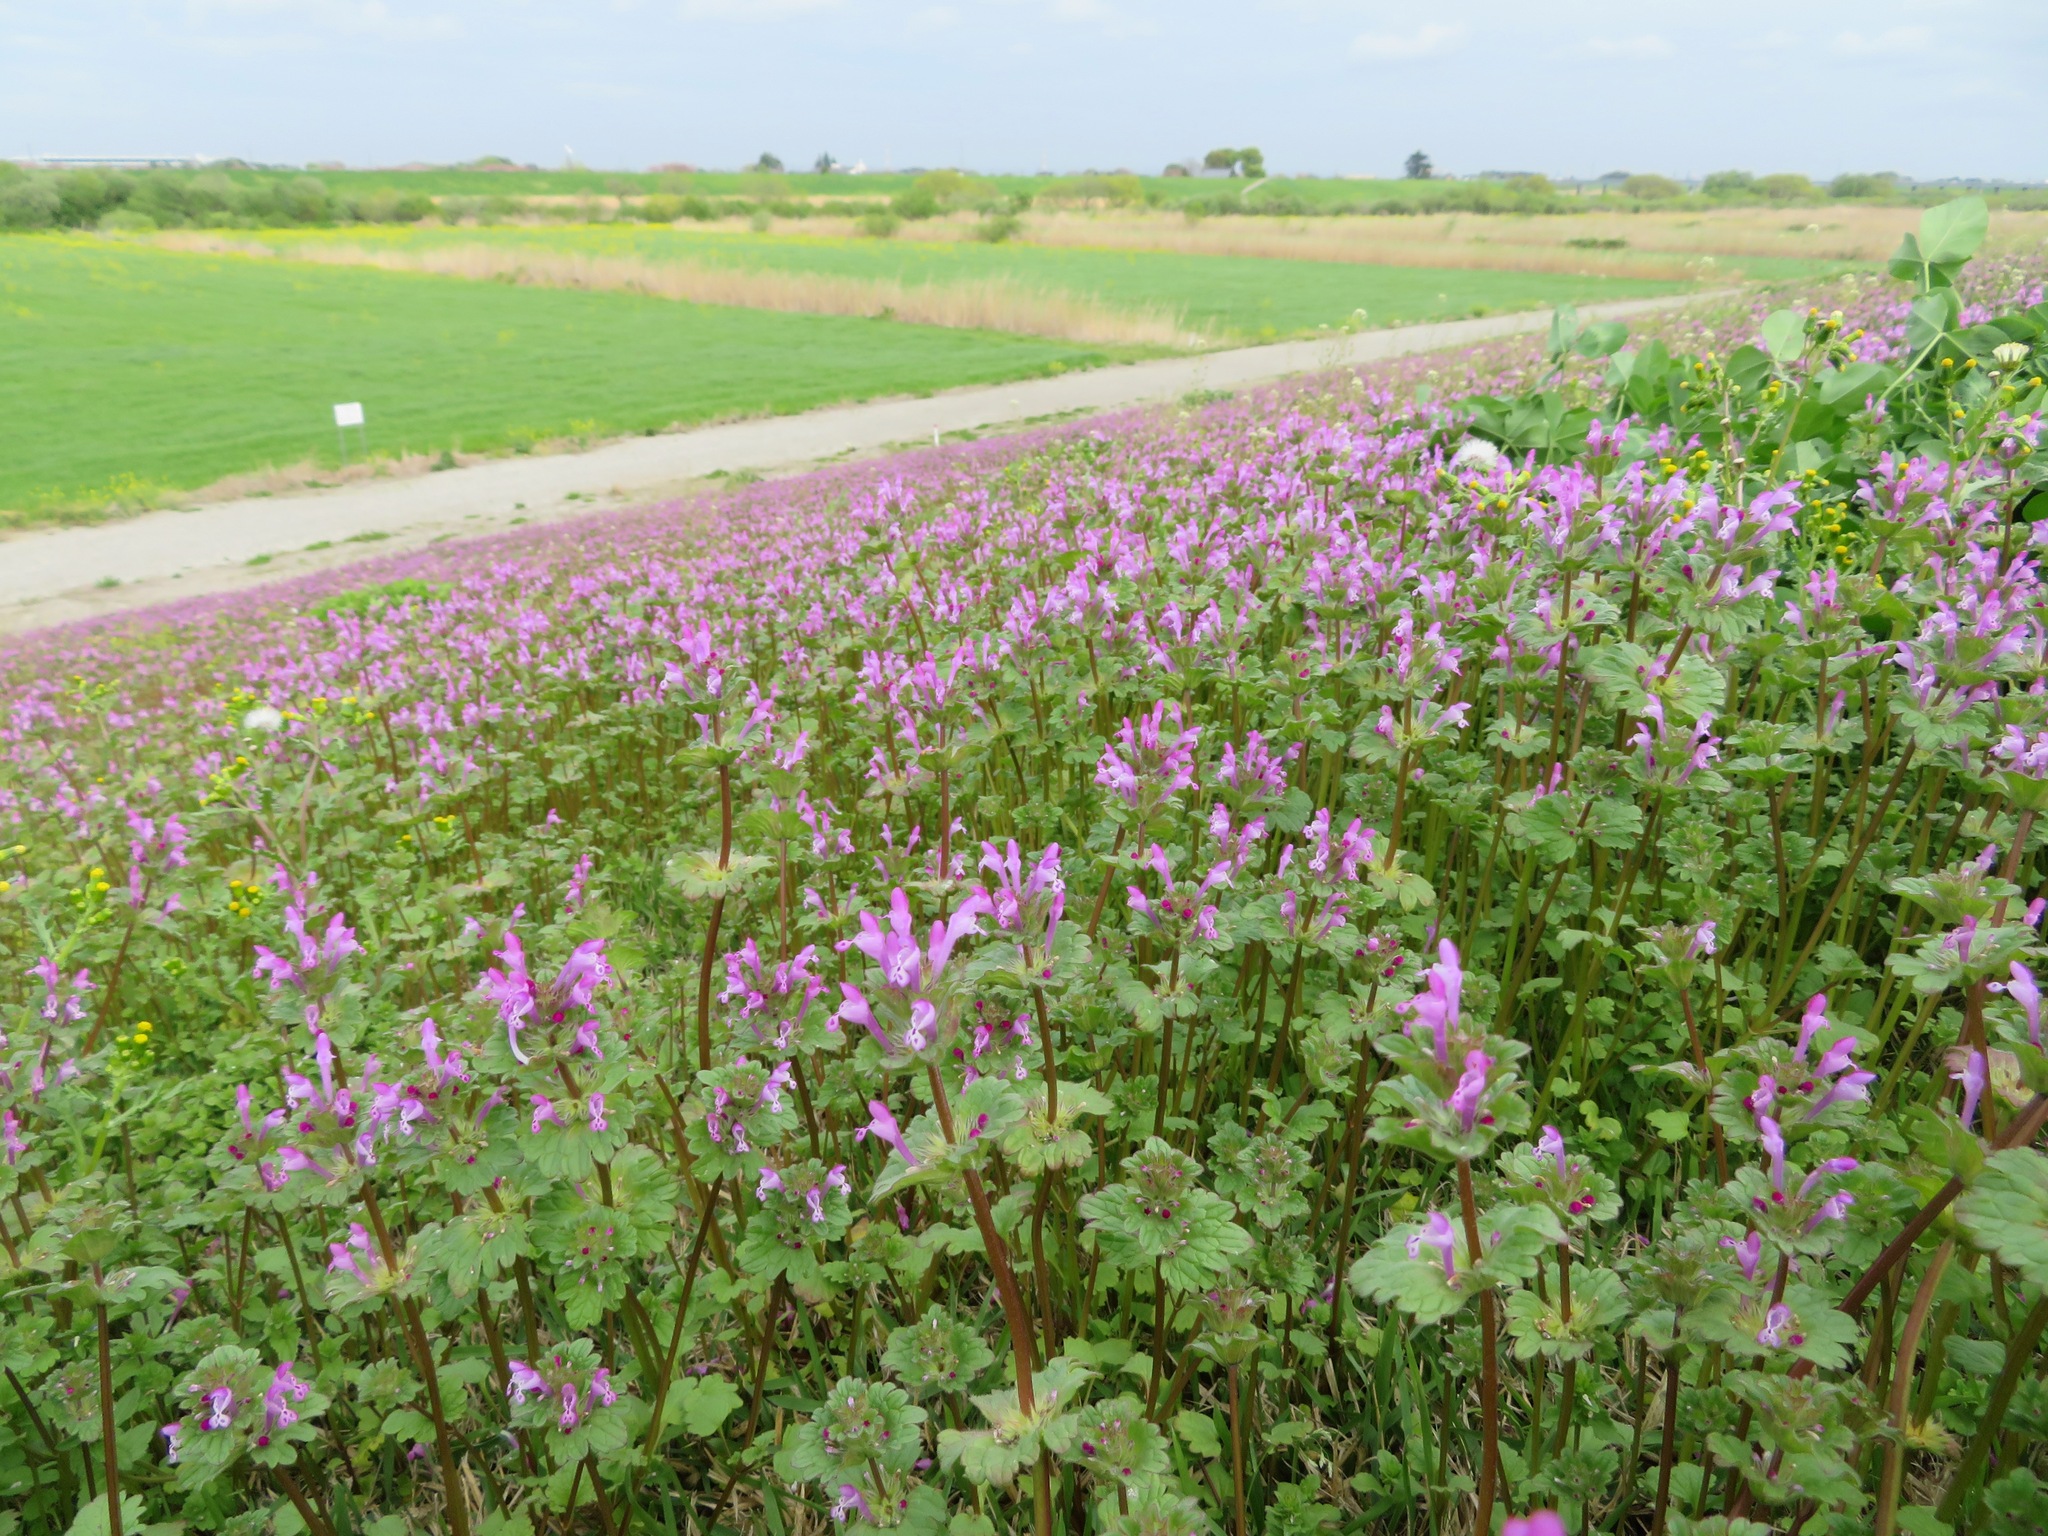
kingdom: Plantae
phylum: Tracheophyta
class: Magnoliopsida
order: Lamiales
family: Lamiaceae
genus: Lamium
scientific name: Lamium amplexicaule
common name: Henbit dead-nettle
